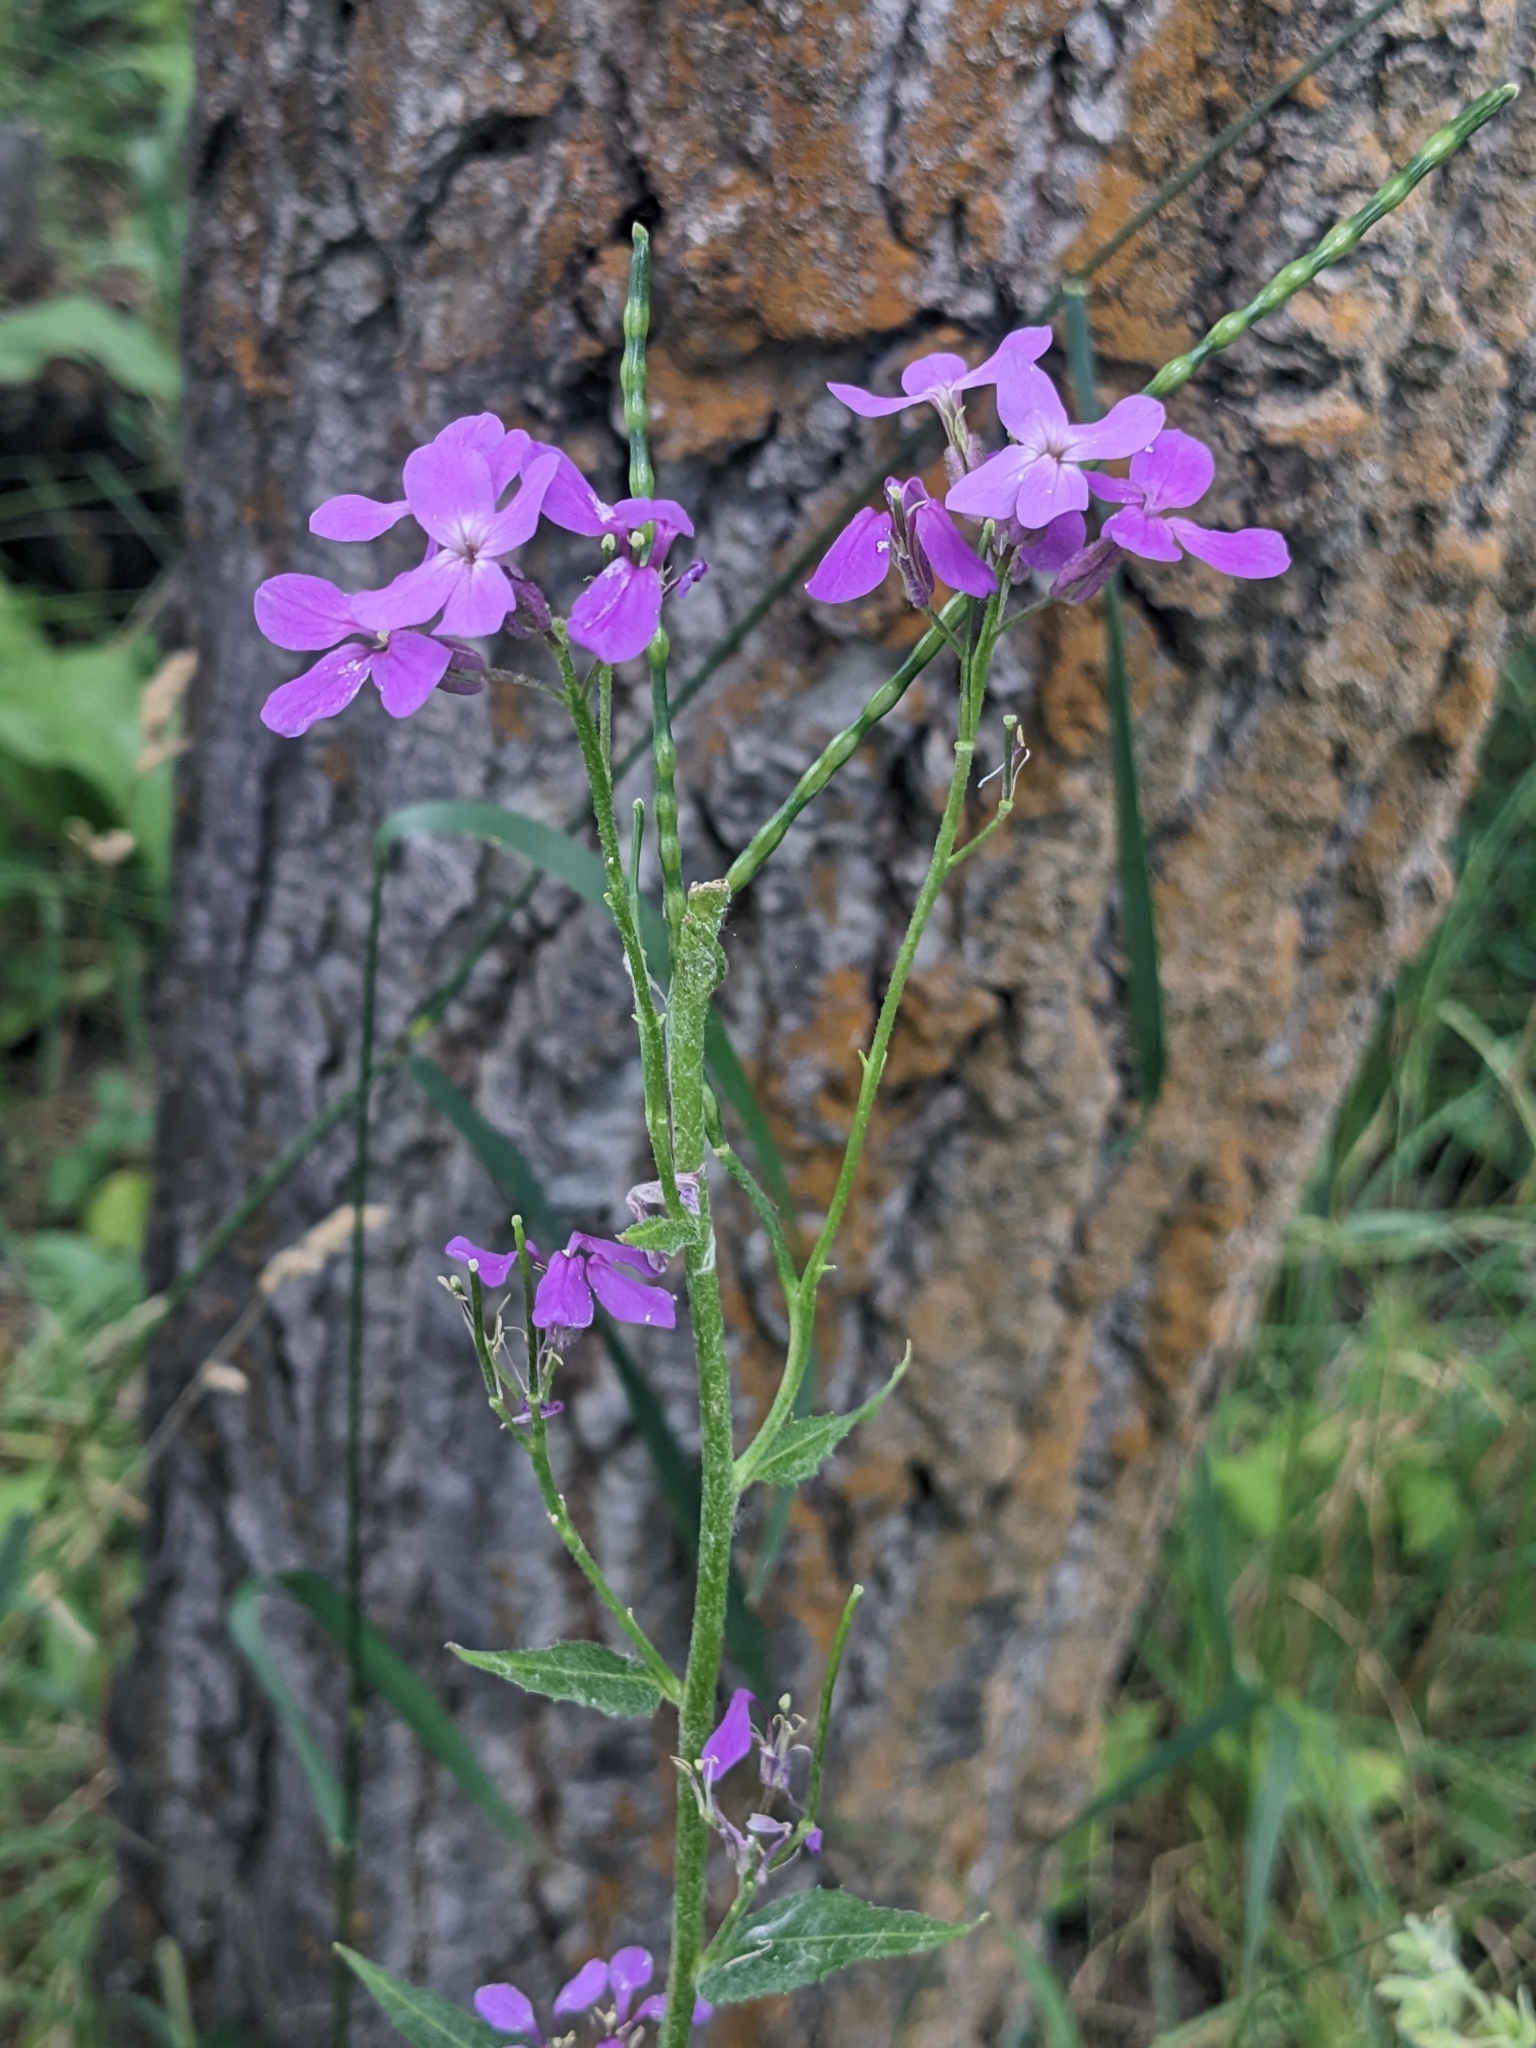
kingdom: Plantae
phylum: Tracheophyta
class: Magnoliopsida
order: Brassicales
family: Brassicaceae
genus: Hesperis
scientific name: Hesperis matronalis
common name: Dame's-violet
